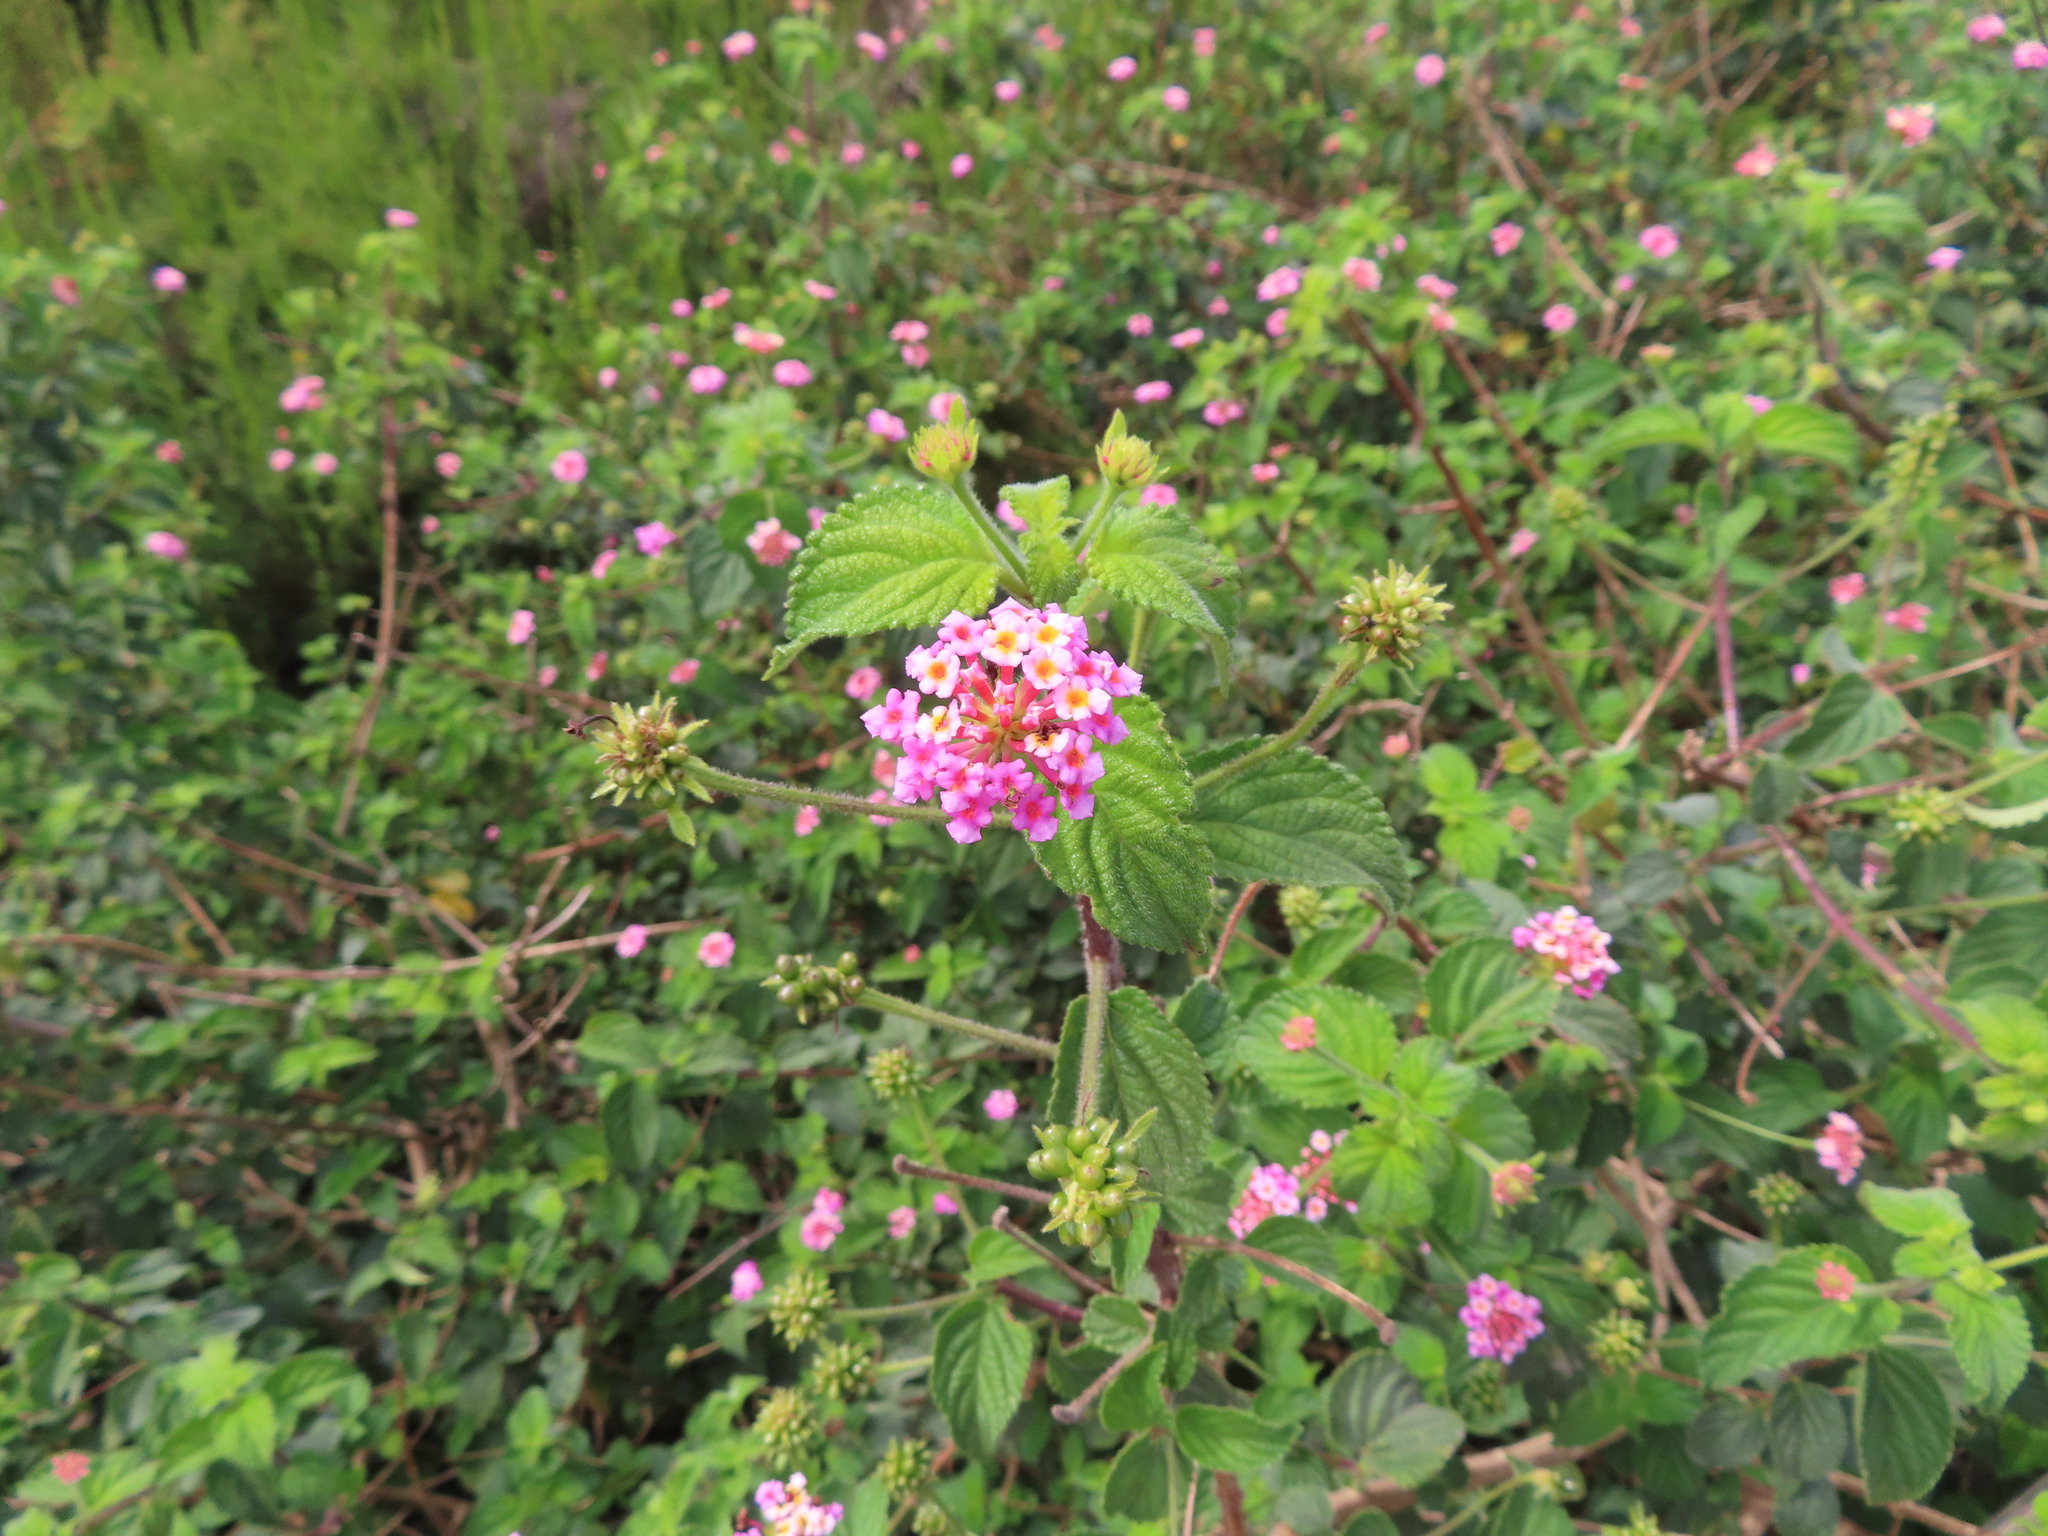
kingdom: Plantae
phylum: Tracheophyta
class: Magnoliopsida
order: Lamiales
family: Verbenaceae
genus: Lantana
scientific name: Lantana camara
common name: Lantana
